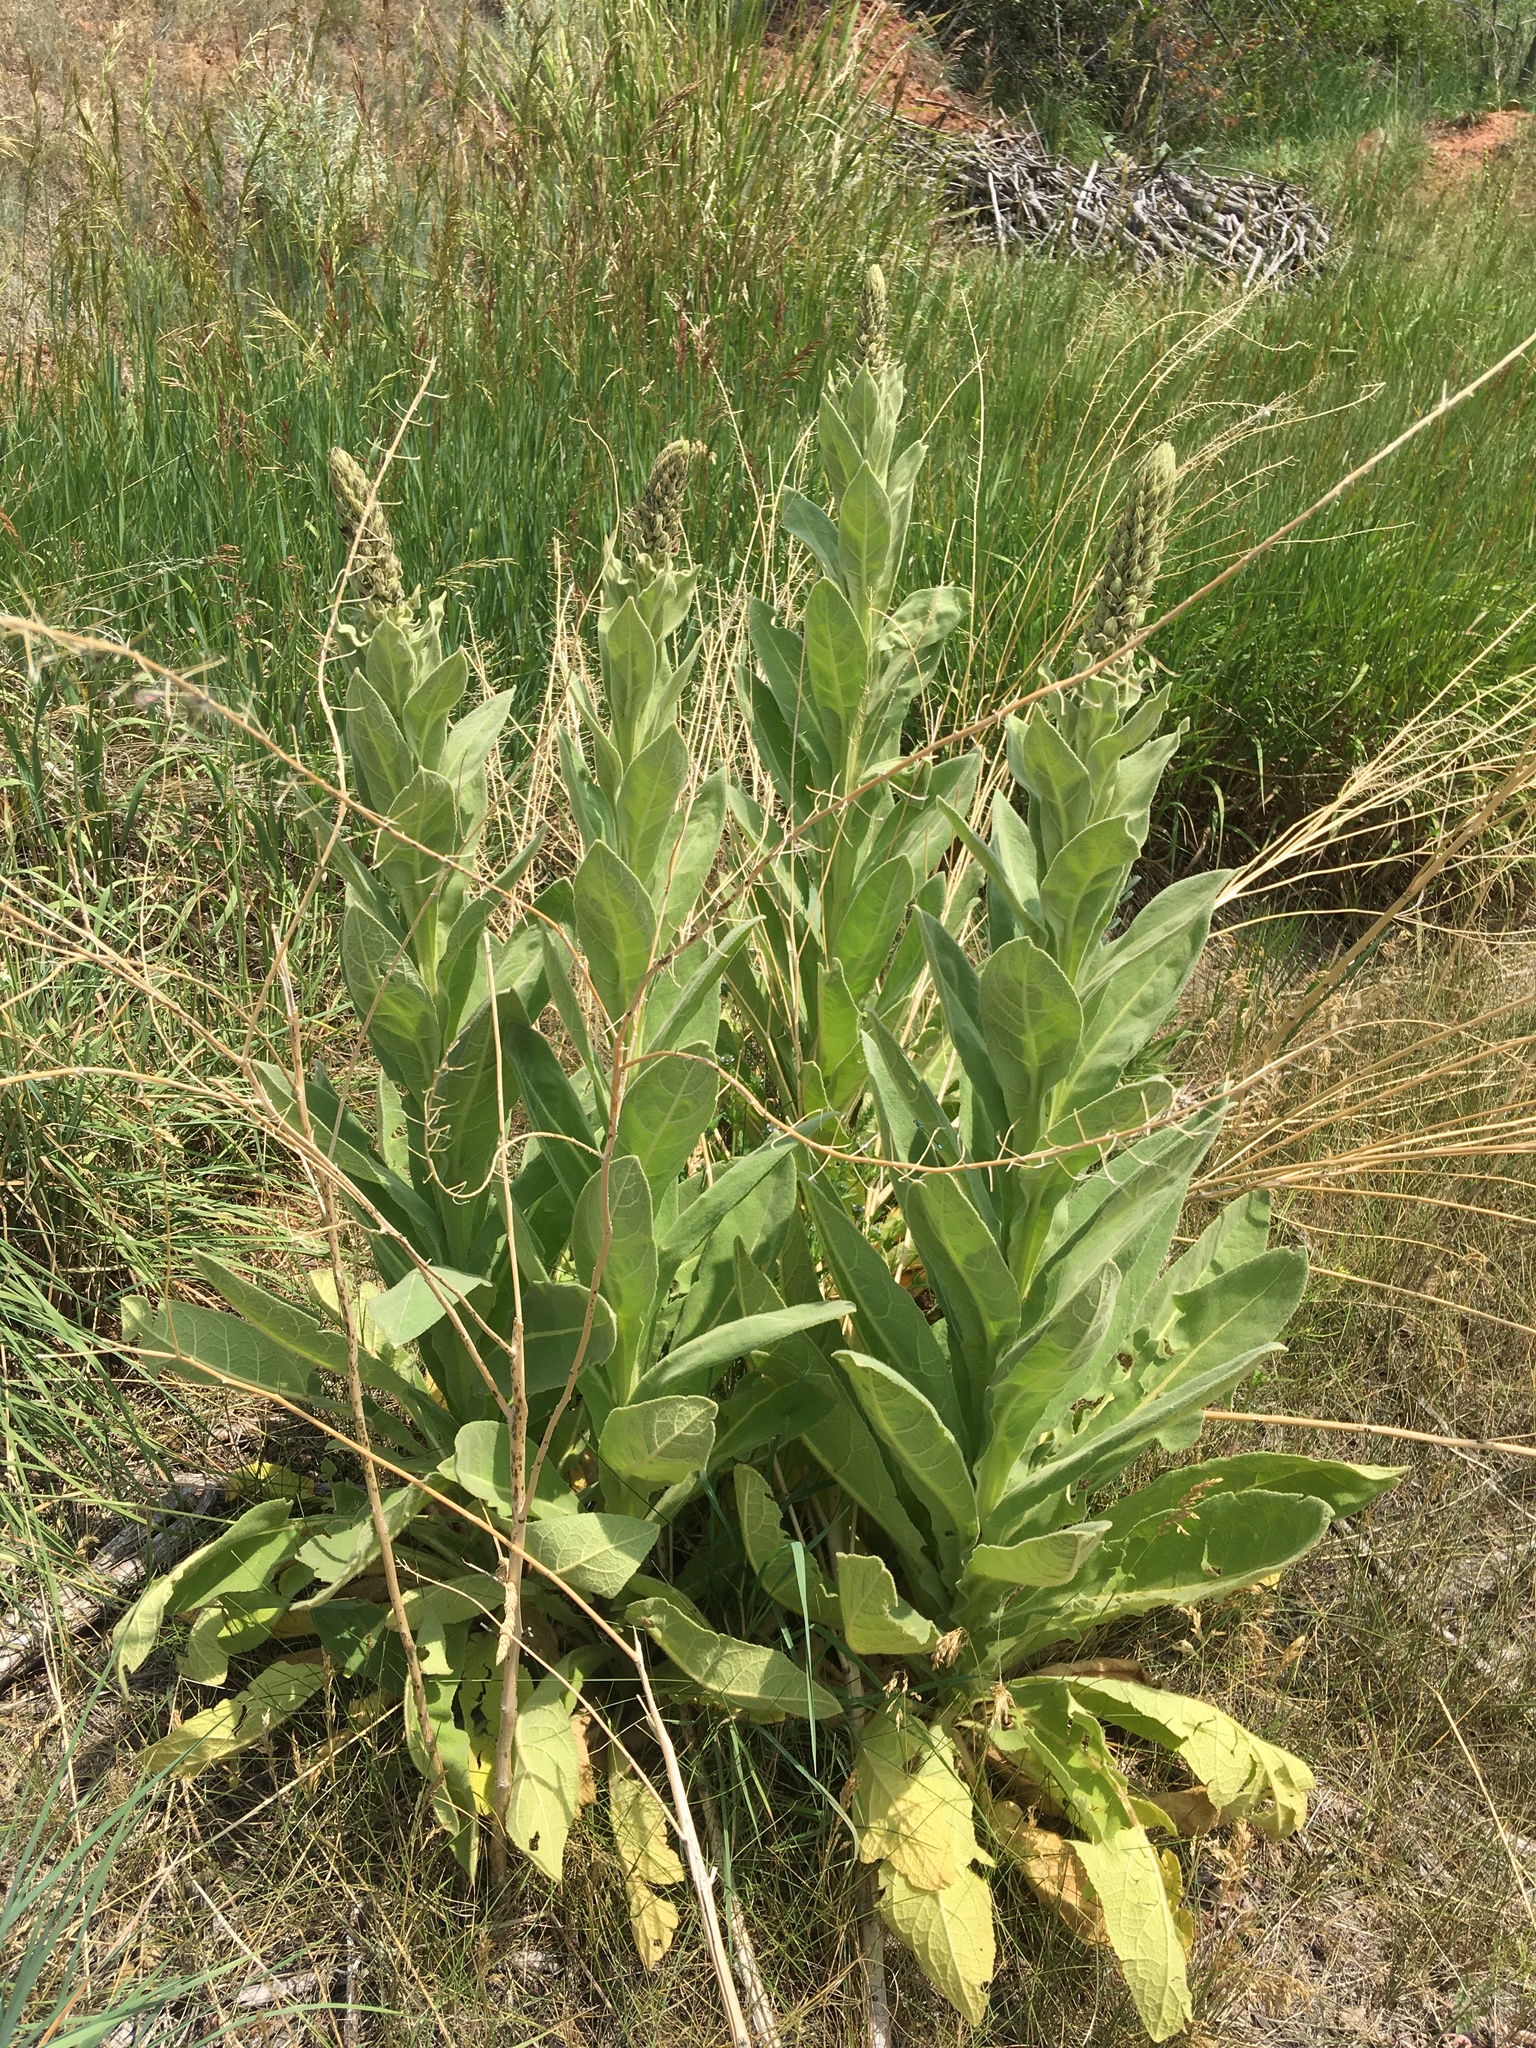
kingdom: Plantae
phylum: Tracheophyta
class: Magnoliopsida
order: Lamiales
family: Scrophulariaceae
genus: Verbascum
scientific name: Verbascum thapsus
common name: Common mullein
